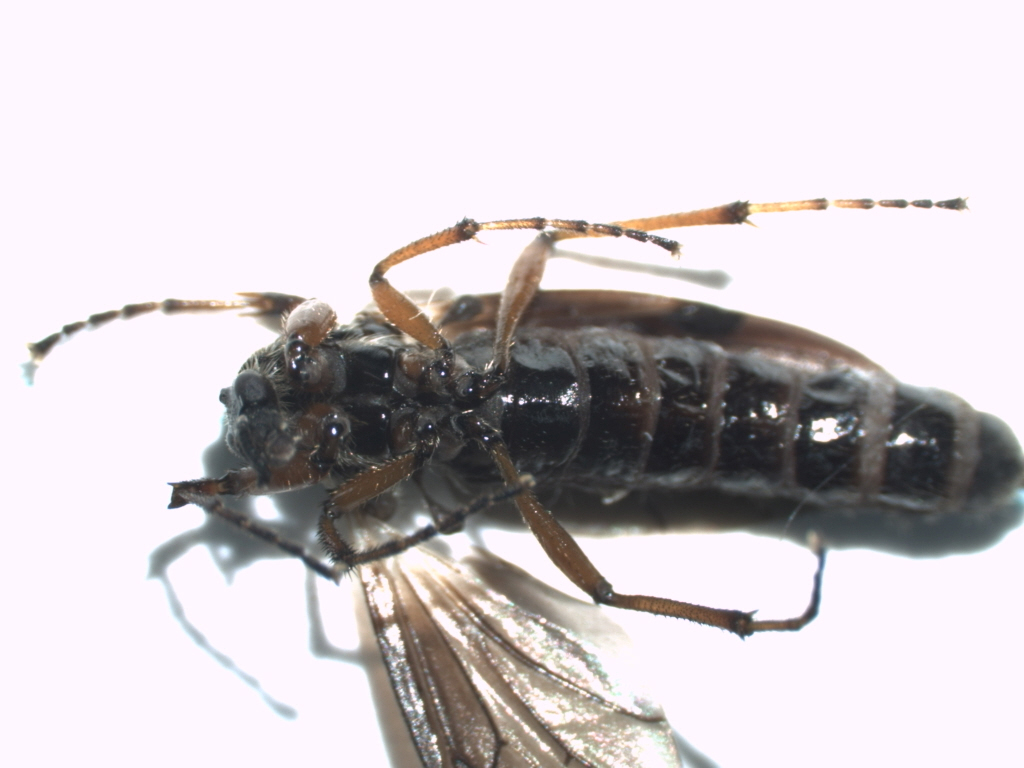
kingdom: Animalia
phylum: Arthropoda
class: Insecta
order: Diptera
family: Bibionidae
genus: Bibio
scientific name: Bibio vestitus
